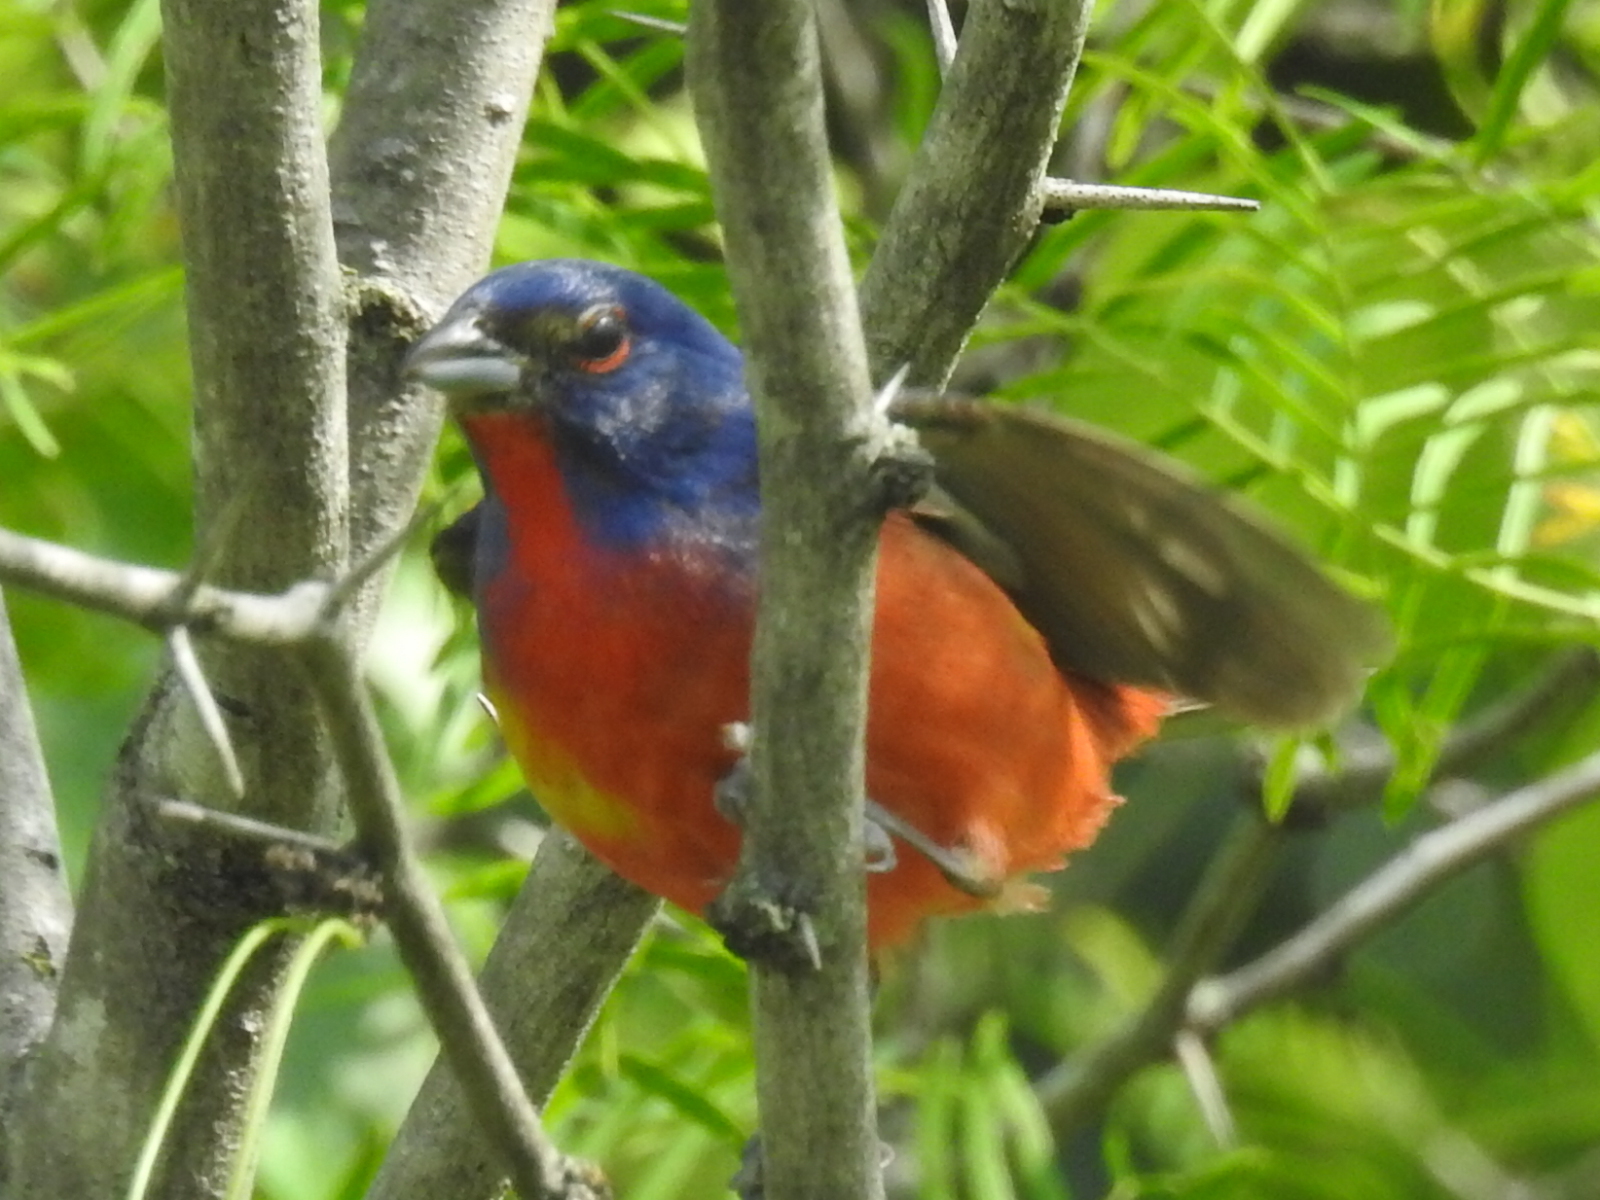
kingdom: Animalia
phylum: Chordata
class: Aves
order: Passeriformes
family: Cardinalidae
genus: Passerina
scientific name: Passerina ciris
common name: Painted bunting
